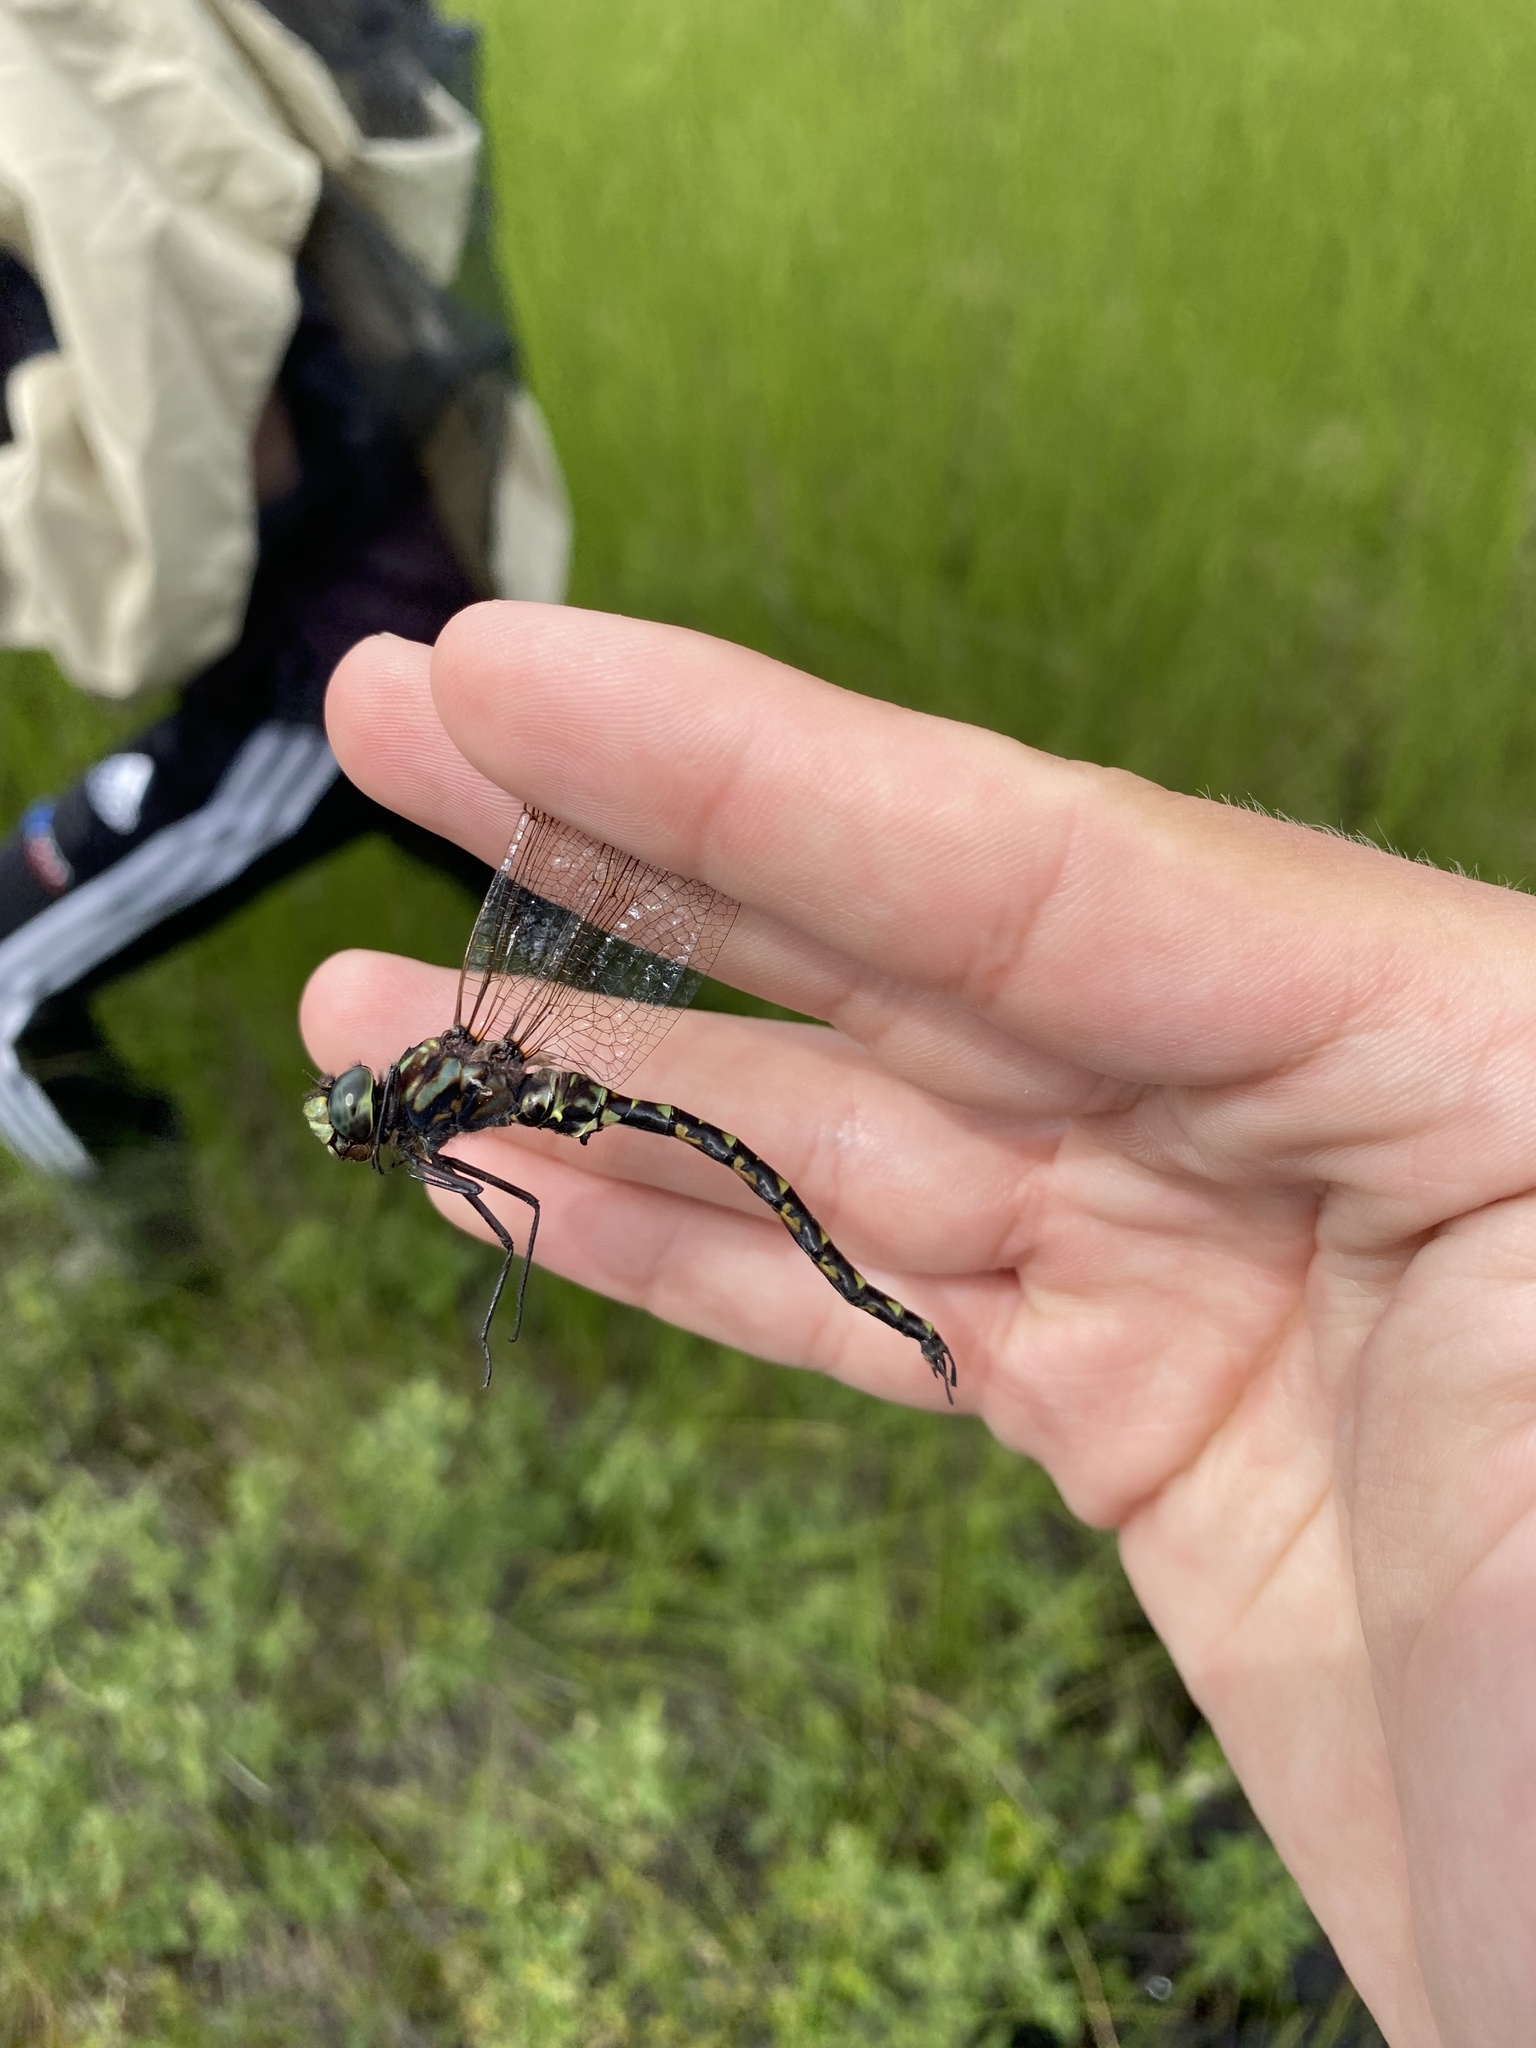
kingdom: Animalia
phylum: Arthropoda
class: Insecta
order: Odonata
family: Aeshnidae
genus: Gomphaeschna
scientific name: Gomphaeschna furcillata
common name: Harlequin darner
